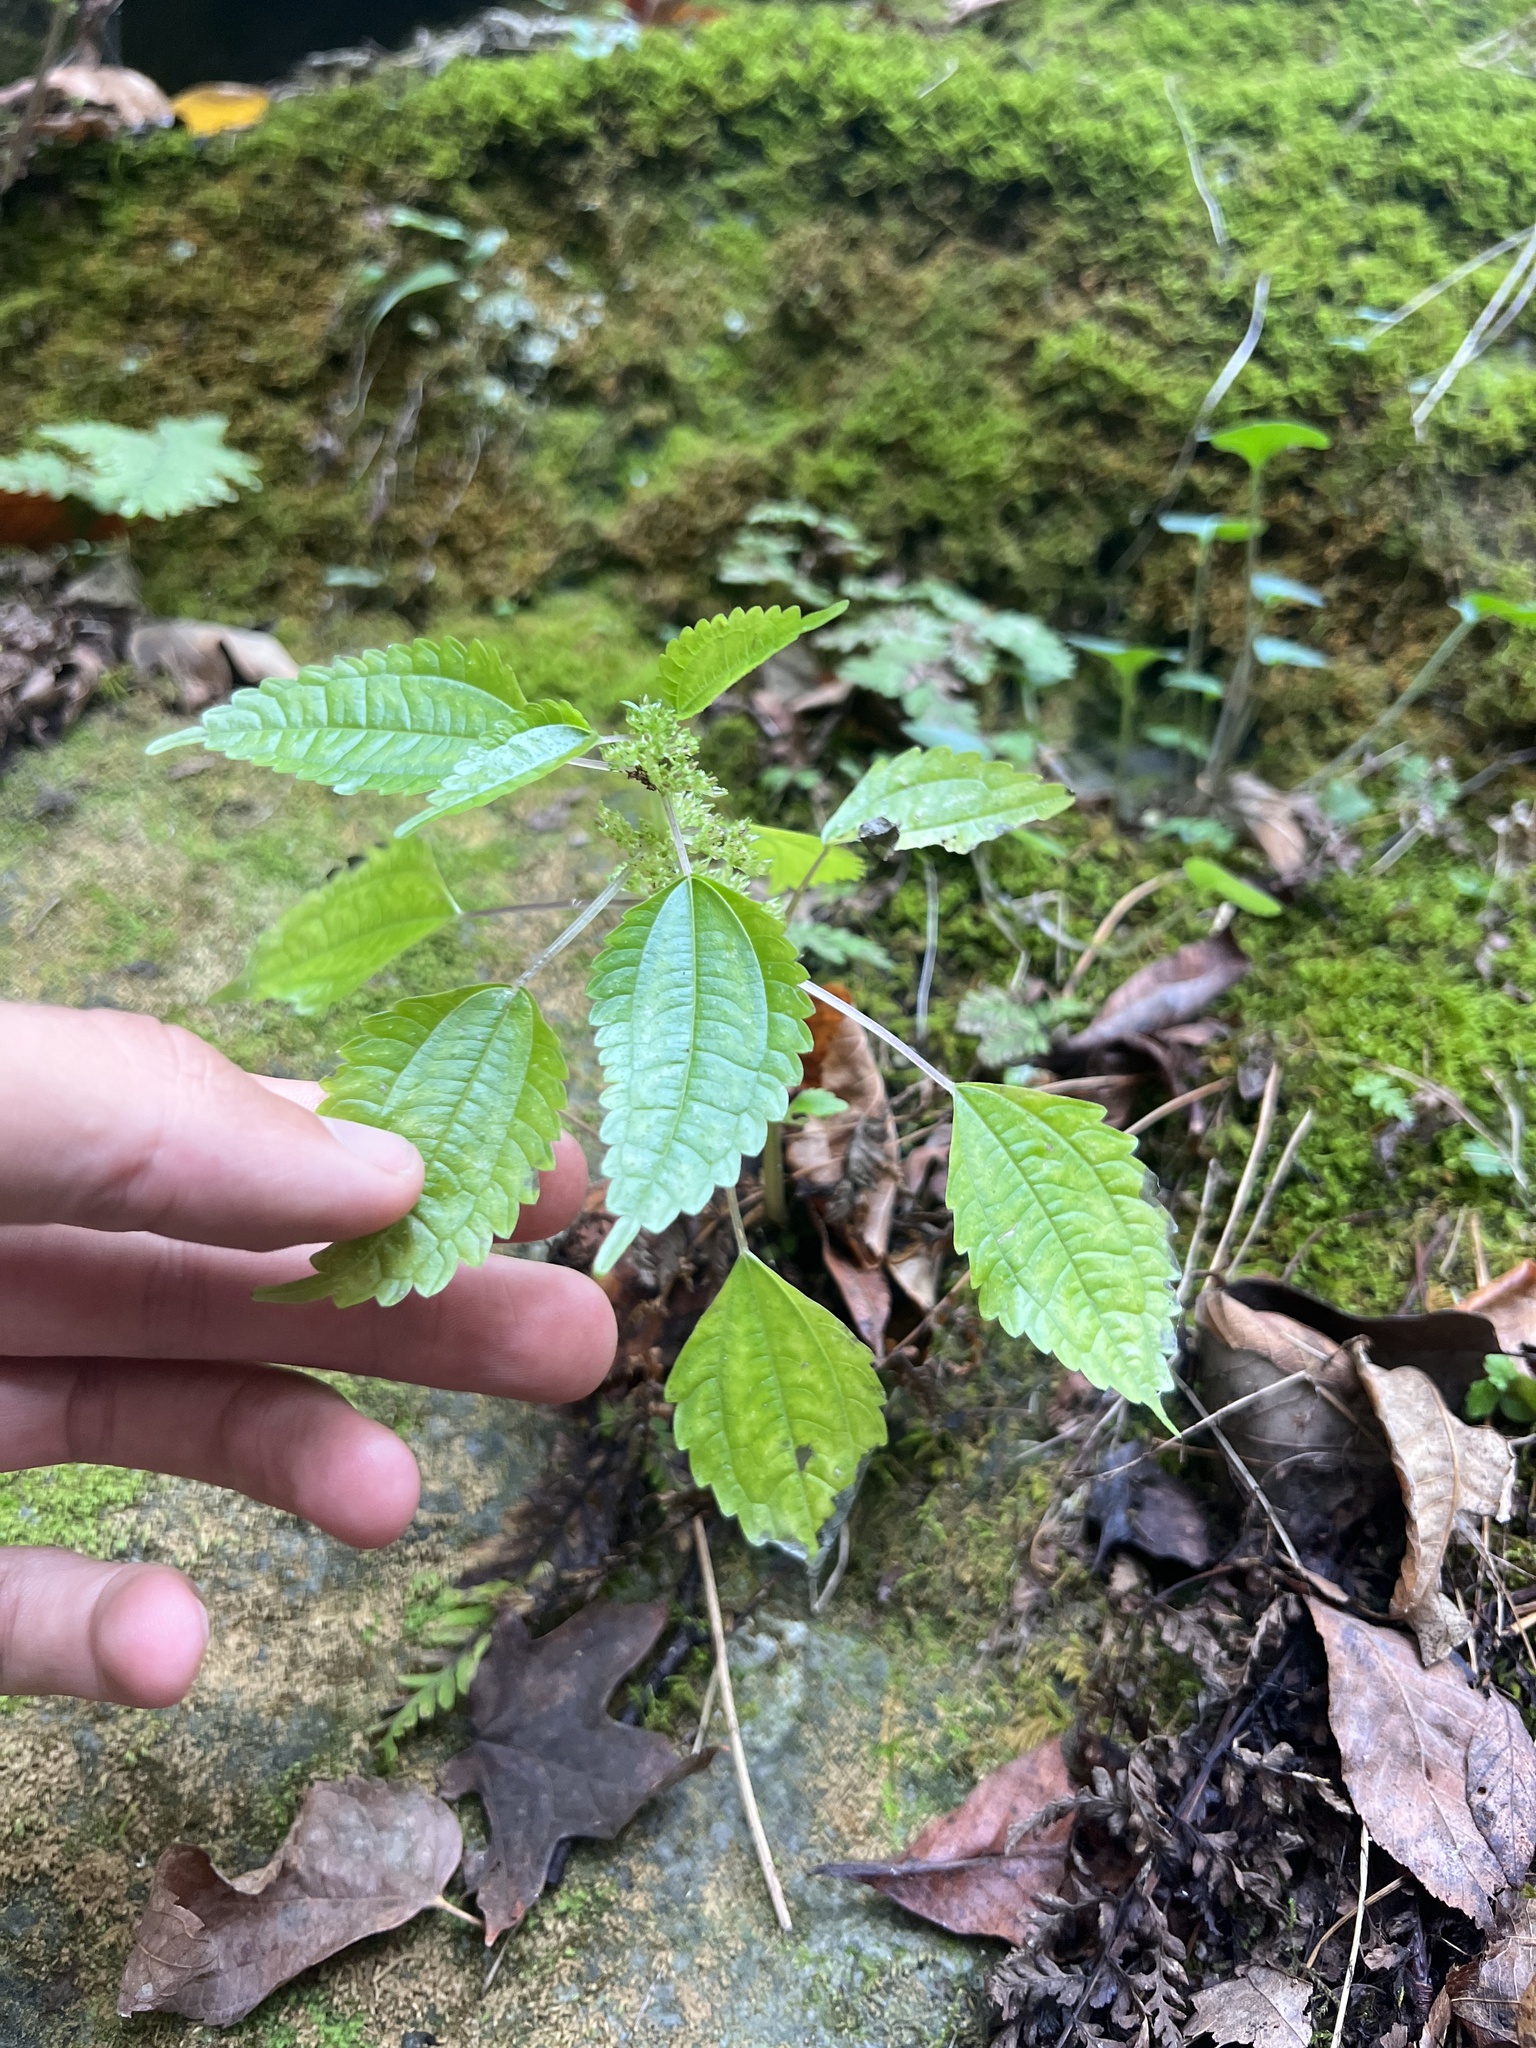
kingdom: Plantae
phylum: Tracheophyta
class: Magnoliopsida
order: Rosales
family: Urticaceae
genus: Pilea
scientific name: Pilea pumila
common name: Clearweed
